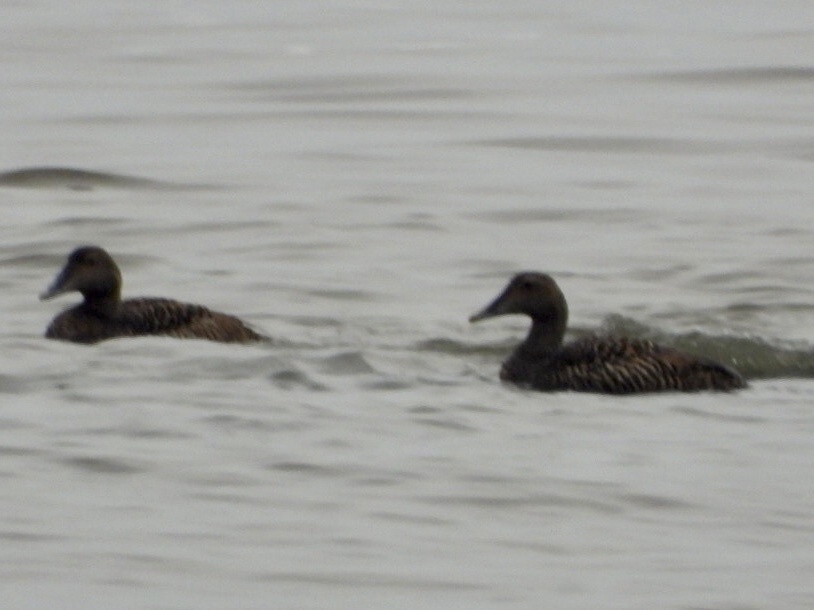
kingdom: Animalia
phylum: Chordata
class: Aves
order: Anseriformes
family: Anatidae
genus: Somateria
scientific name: Somateria mollissima
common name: Common eider
